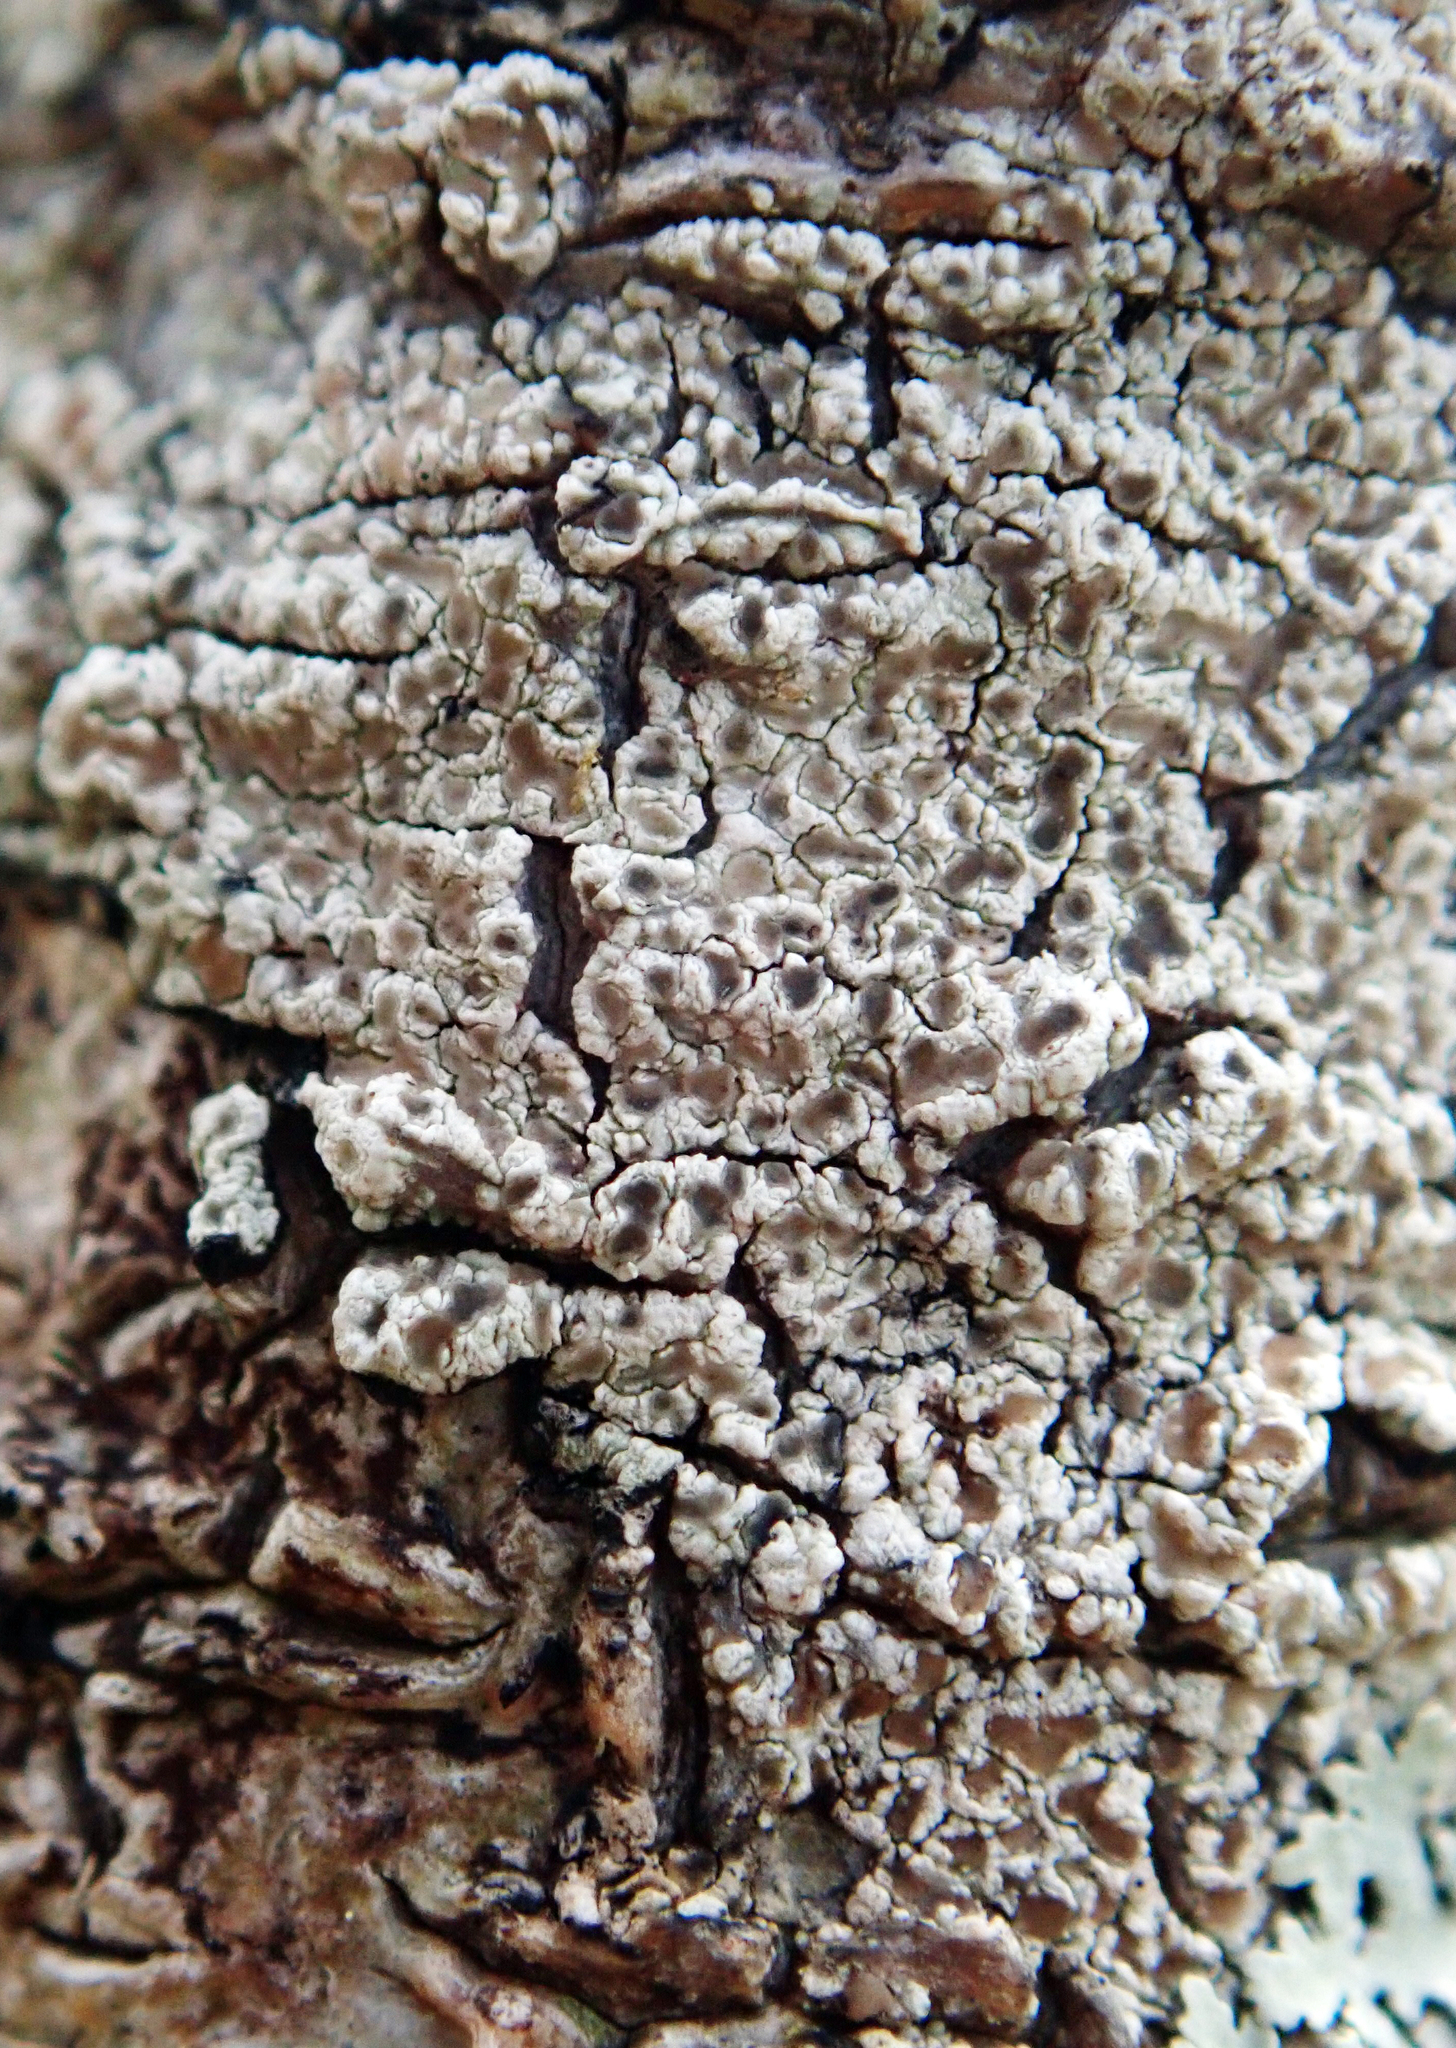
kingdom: Fungi
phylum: Ascomycota
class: Lecanoromycetes
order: Lecanorales
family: Lecanoraceae
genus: Lecanora
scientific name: Lecanora kohu
